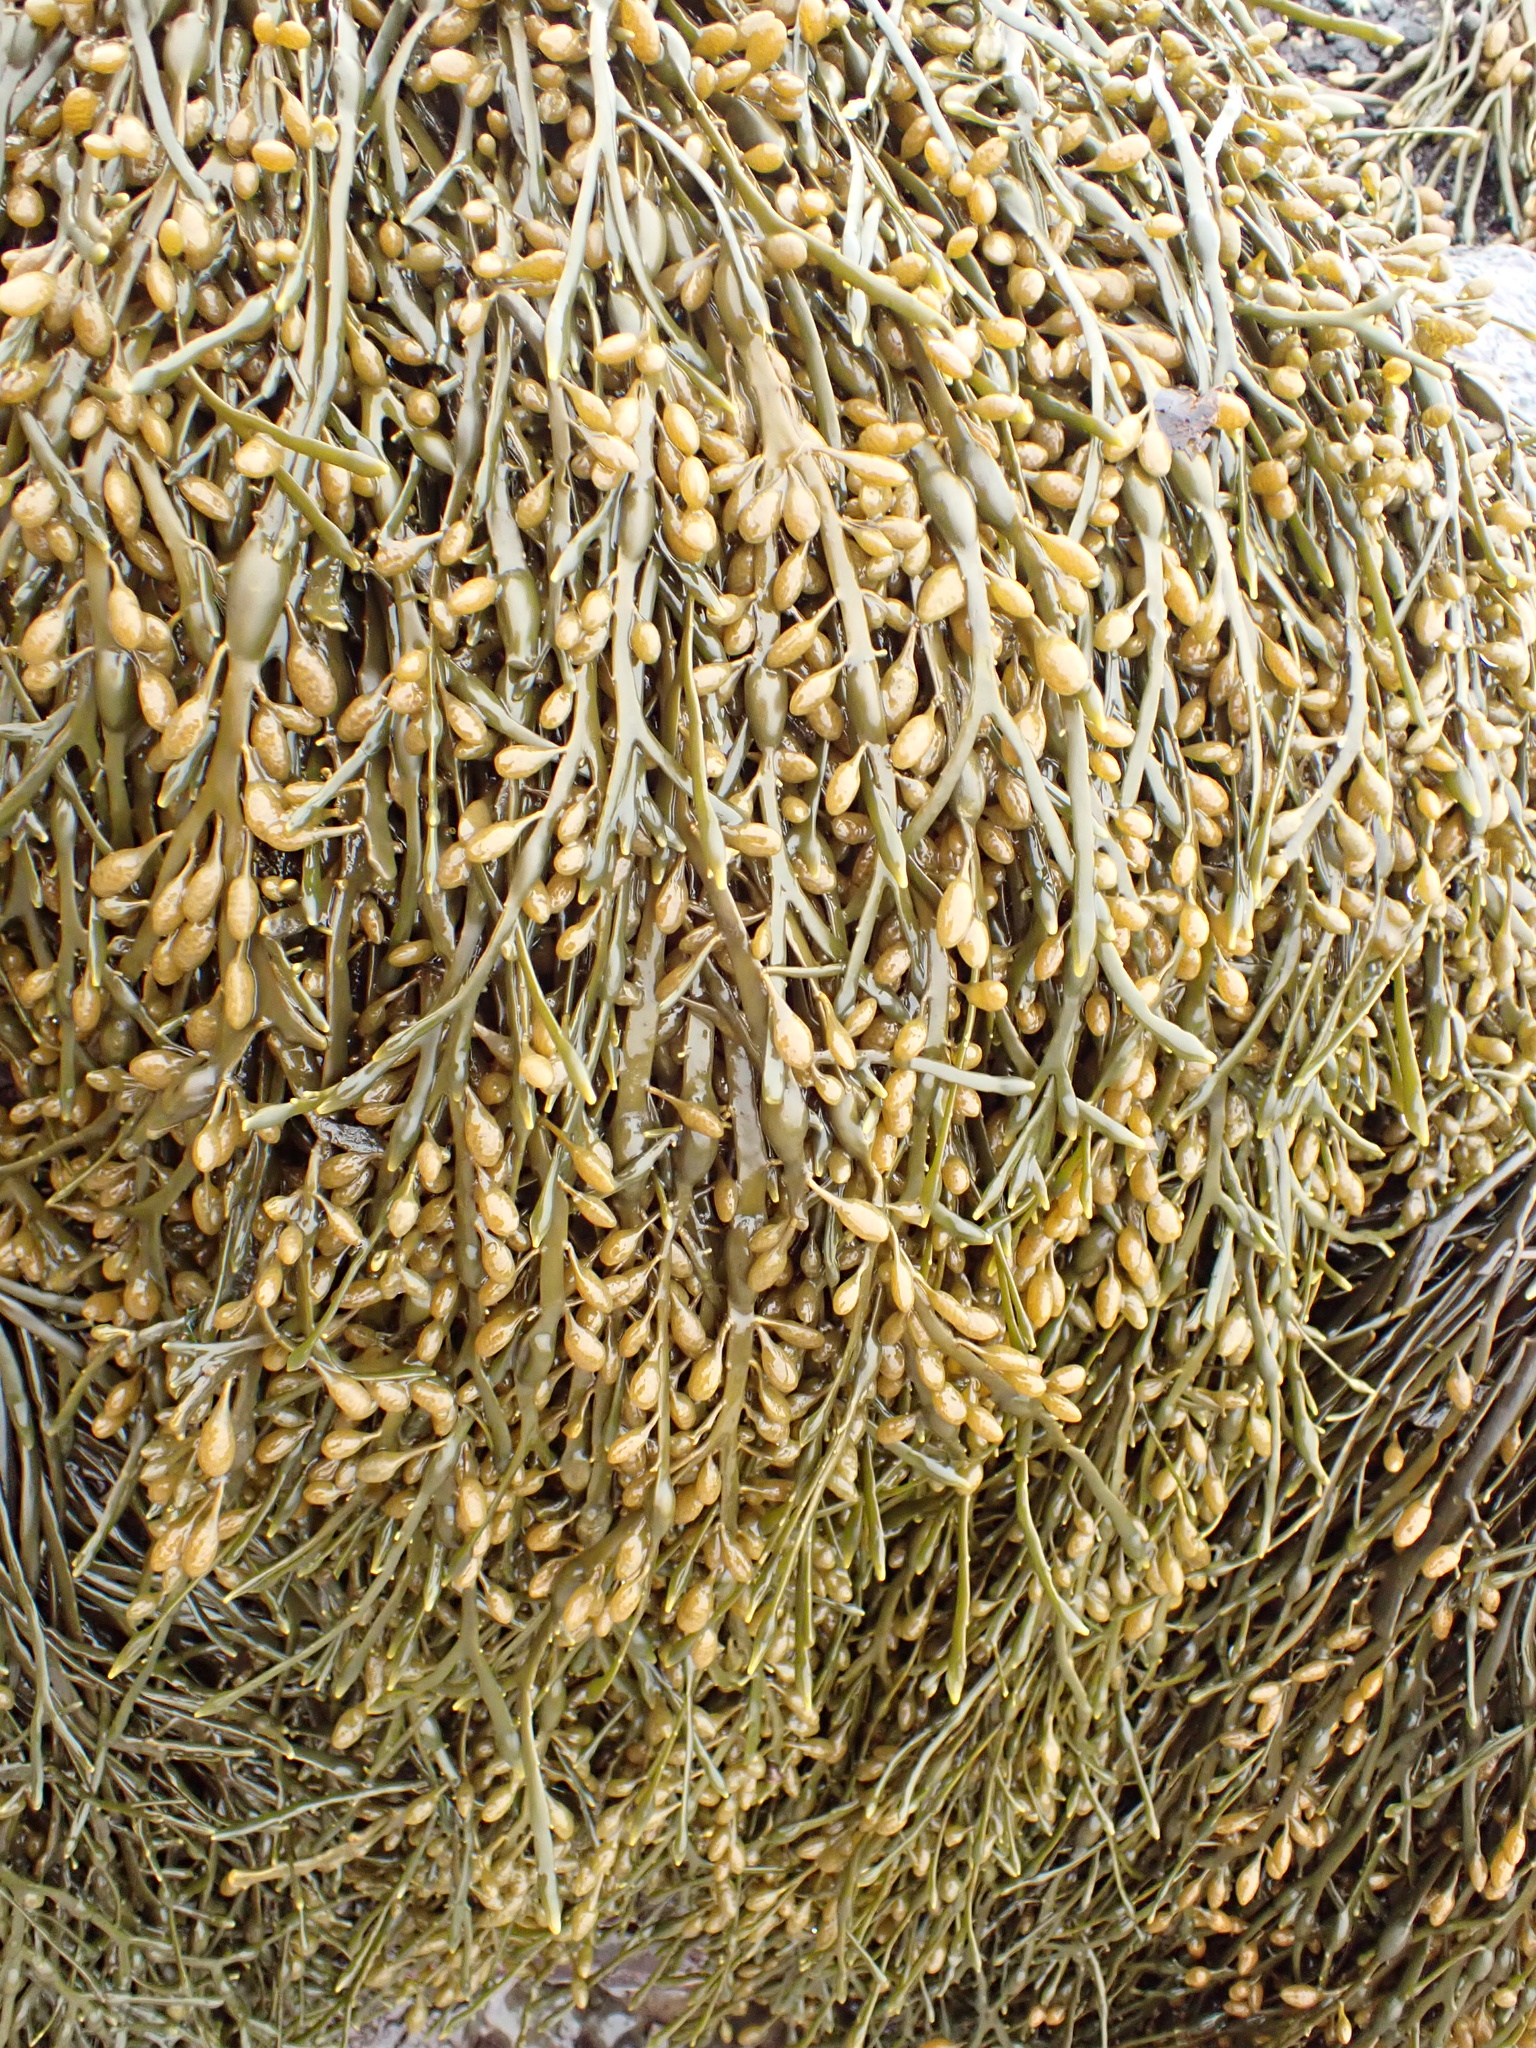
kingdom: Chromista
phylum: Ochrophyta
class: Phaeophyceae
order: Fucales
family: Fucaceae
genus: Ascophyllum
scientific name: Ascophyllum nodosum
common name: Knotted wrack
